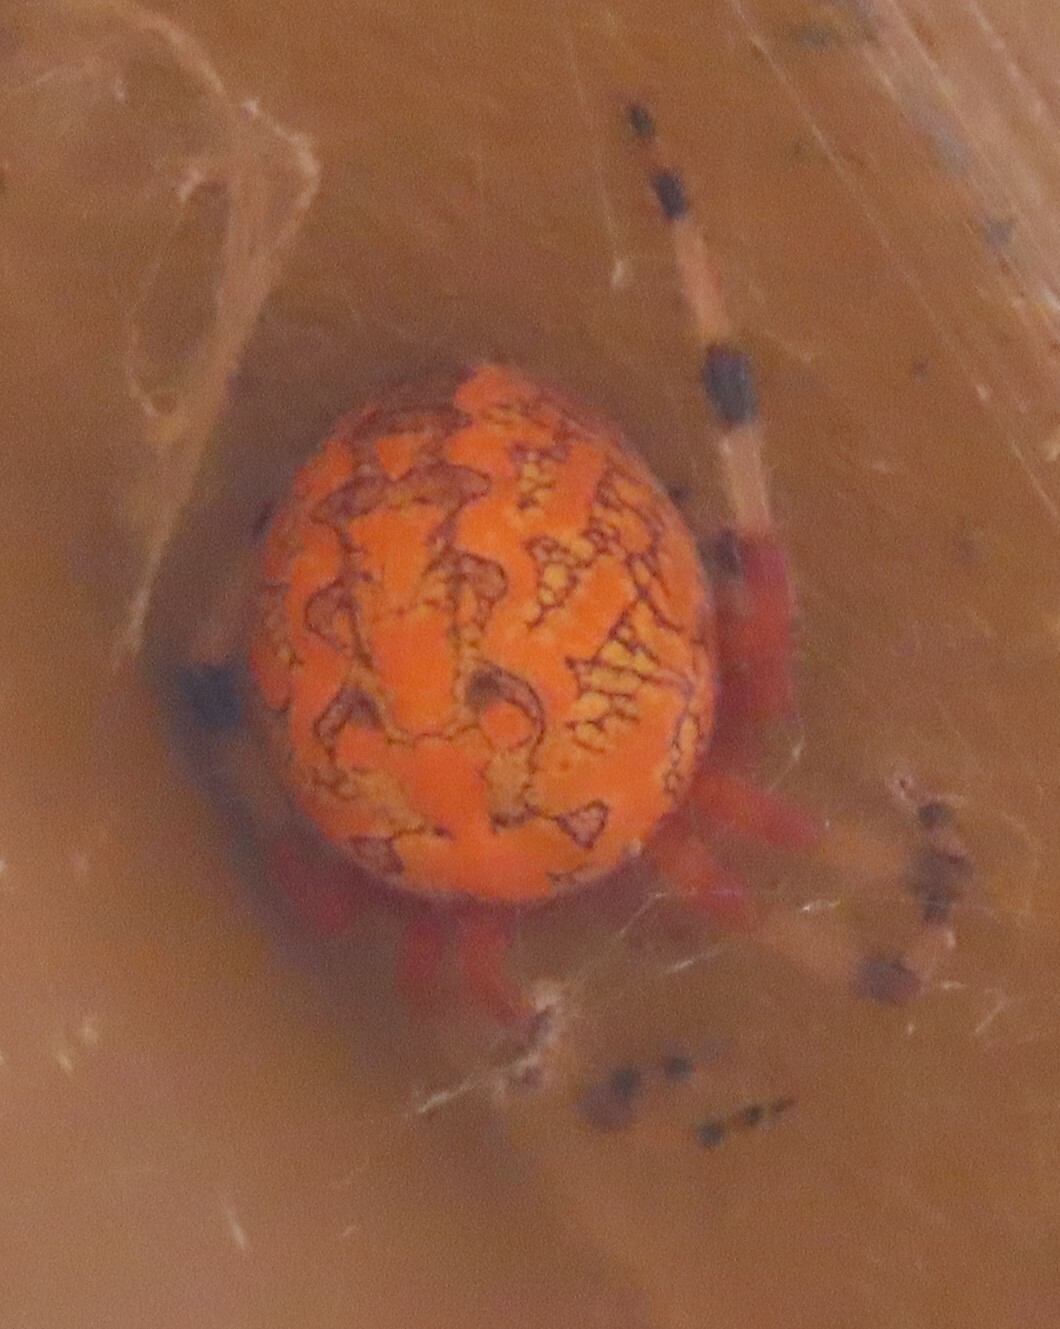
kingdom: Animalia
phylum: Arthropoda
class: Arachnida
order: Araneae
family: Araneidae
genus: Araneus
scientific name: Araneus marmoreus
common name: Marbled orbweaver
